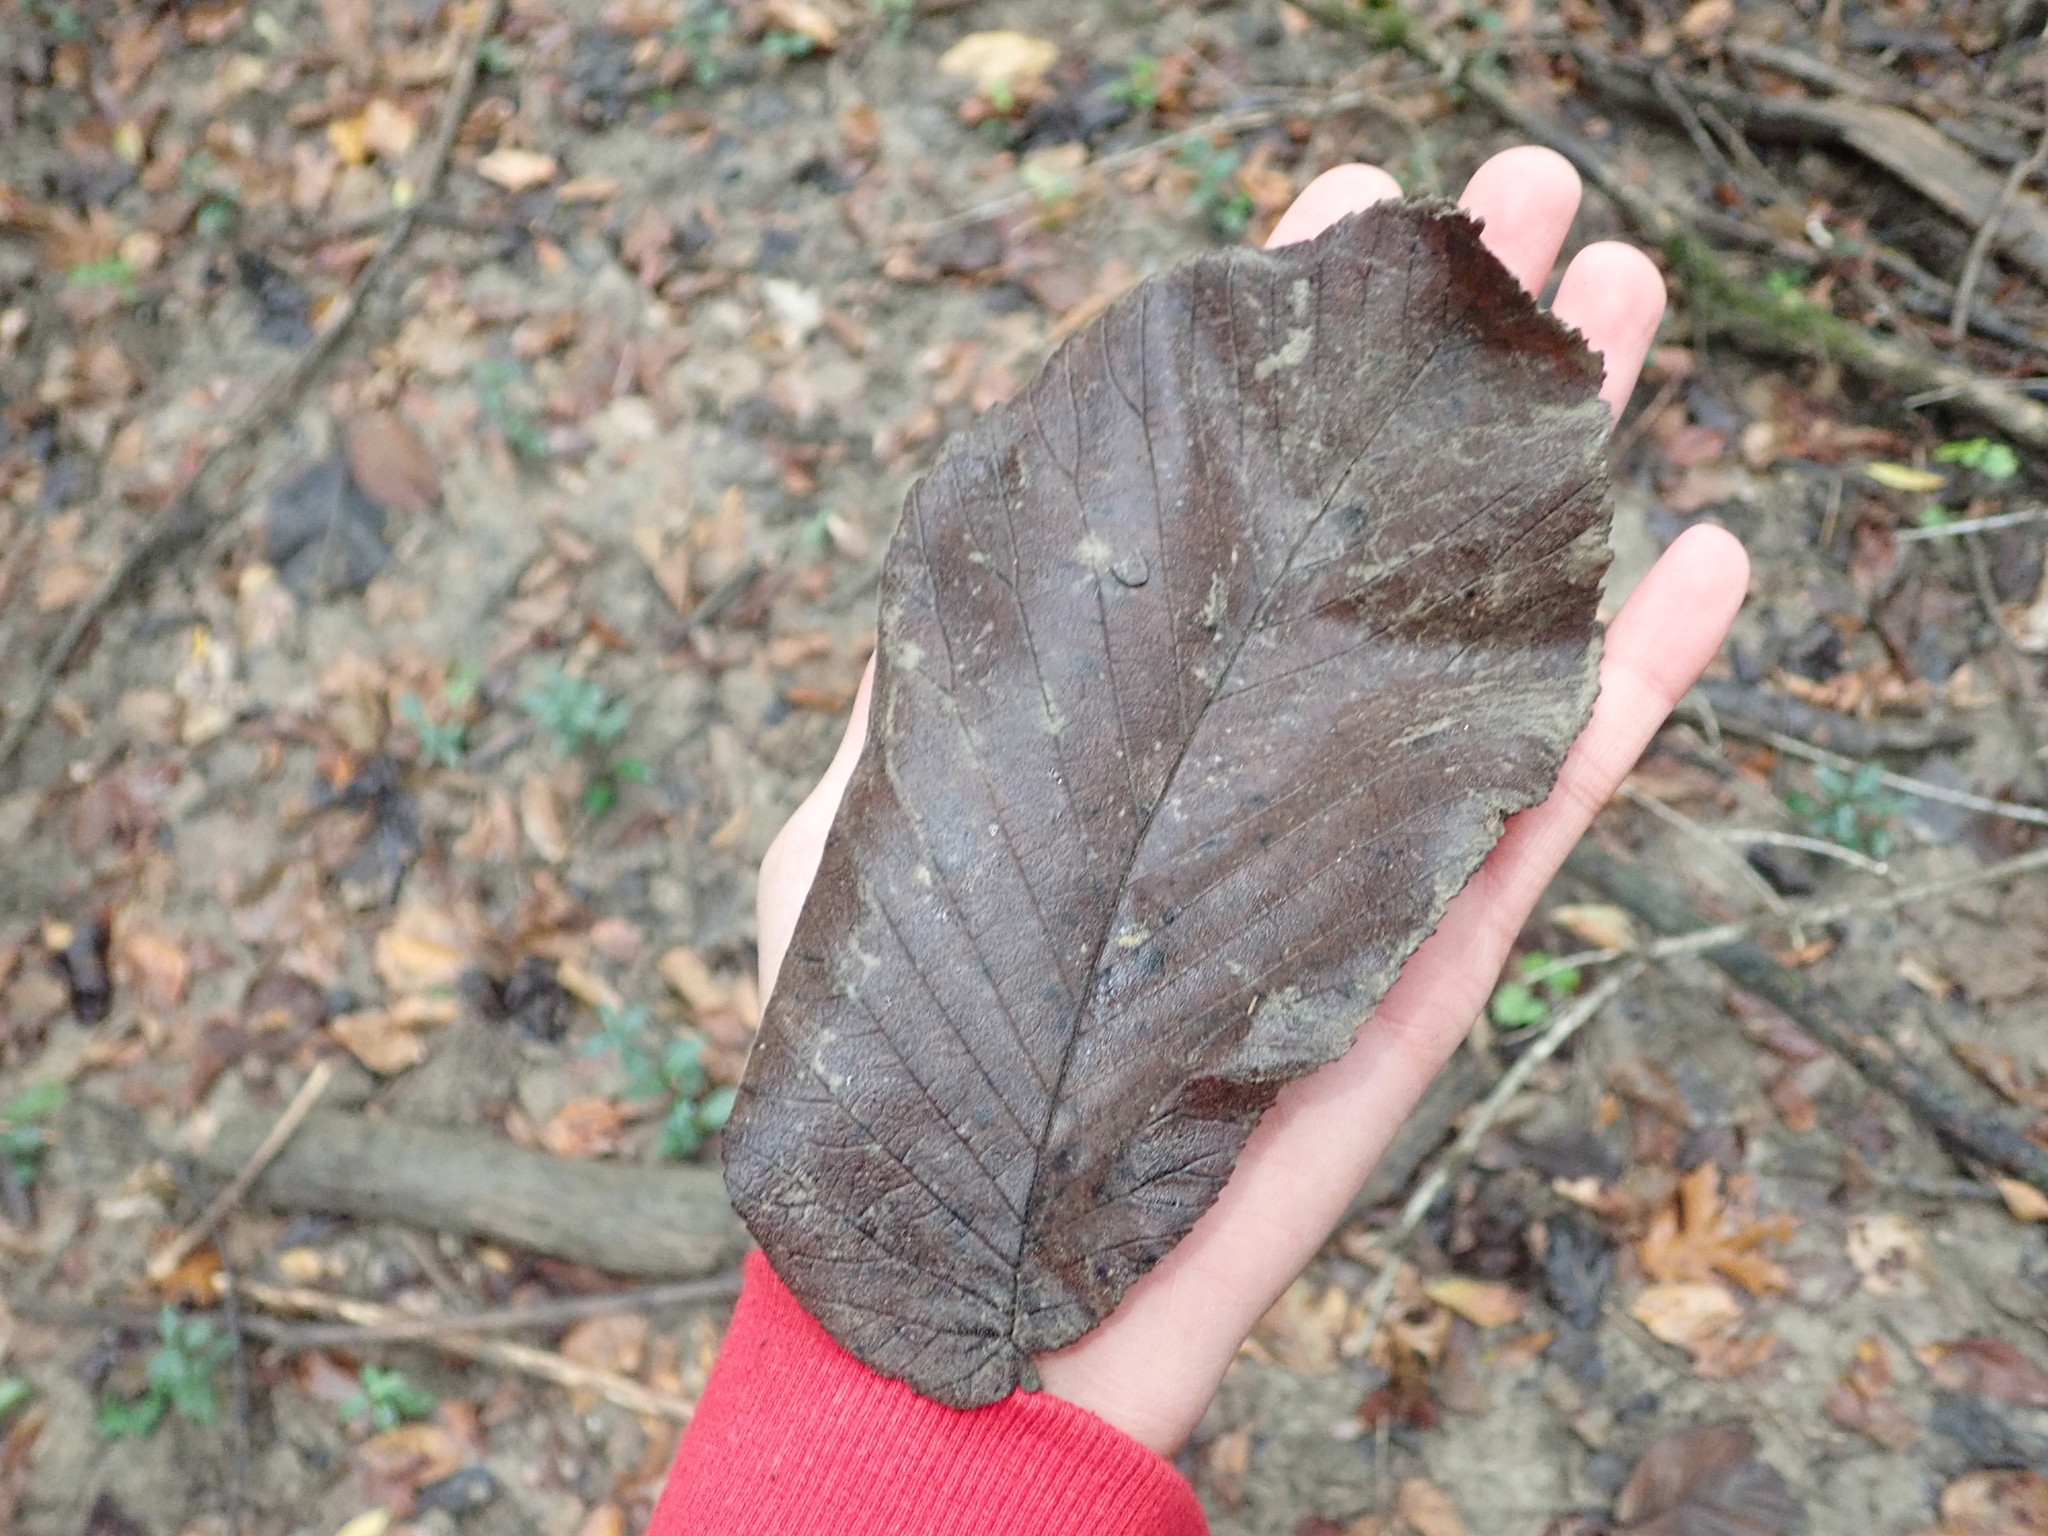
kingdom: Plantae
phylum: Tracheophyta
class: Magnoliopsida
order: Rosales
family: Cannabaceae
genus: Celtis
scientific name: Celtis occidentalis
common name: Common hackberry
